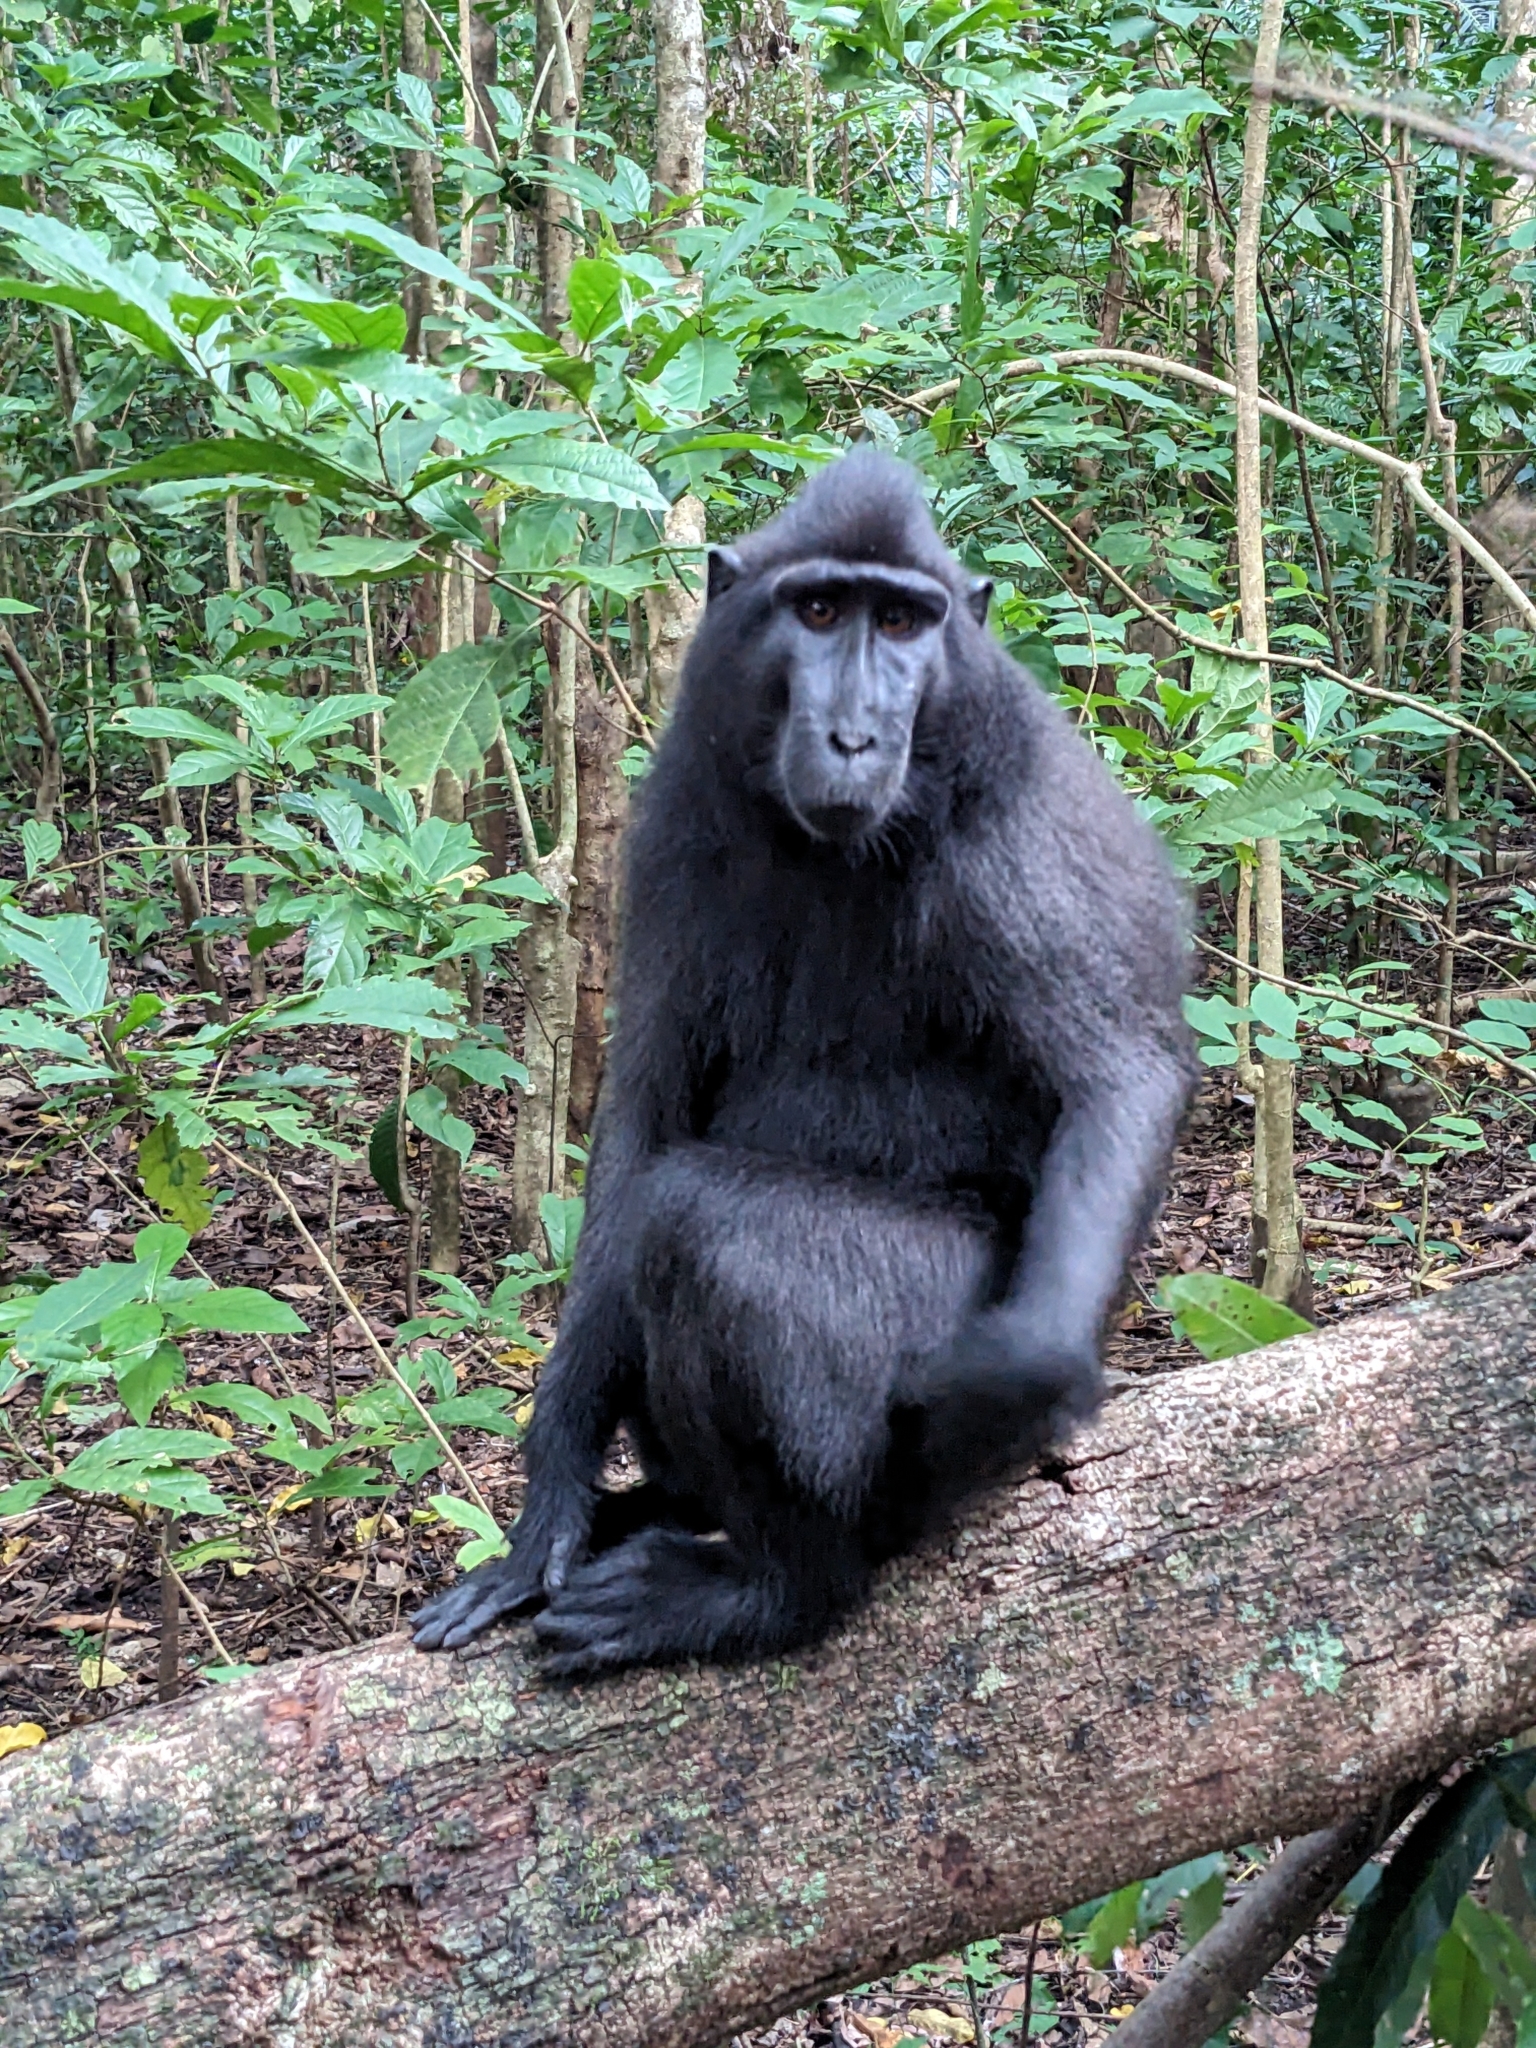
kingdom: Animalia
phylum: Chordata
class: Mammalia
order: Primates
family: Cercopithecidae
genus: Macaca
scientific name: Macaca nigra
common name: Celebes crested macaque
